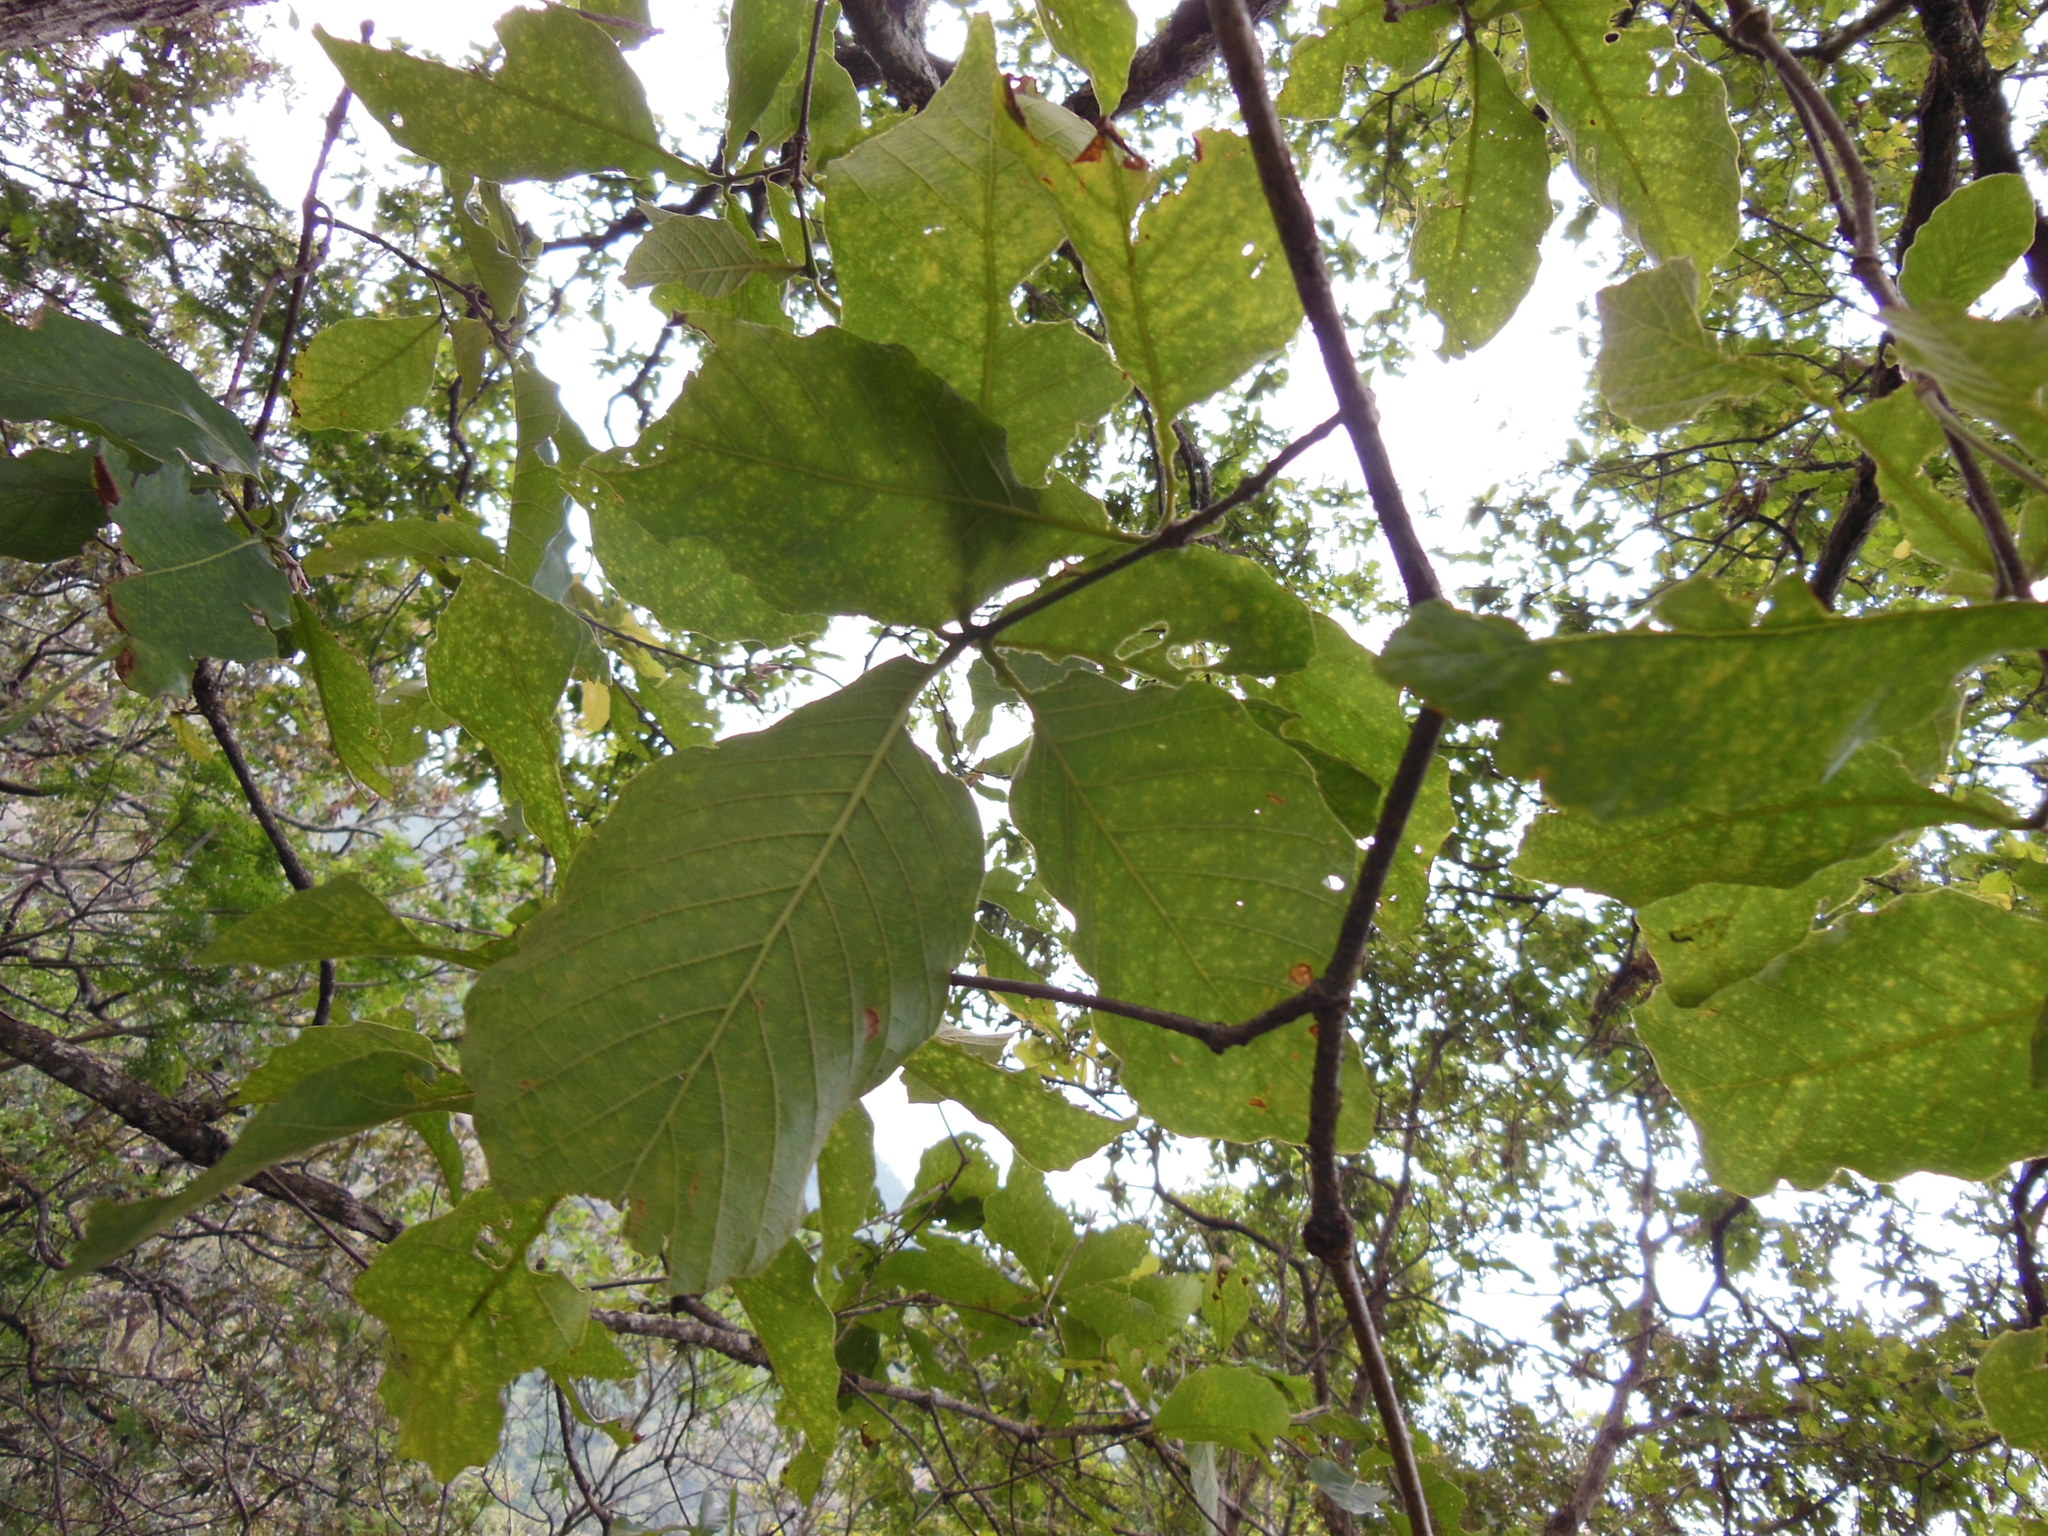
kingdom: Plantae
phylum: Tracheophyta
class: Magnoliopsida
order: Fagales
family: Fagaceae
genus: Quercus
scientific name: Quercus segoviensis
